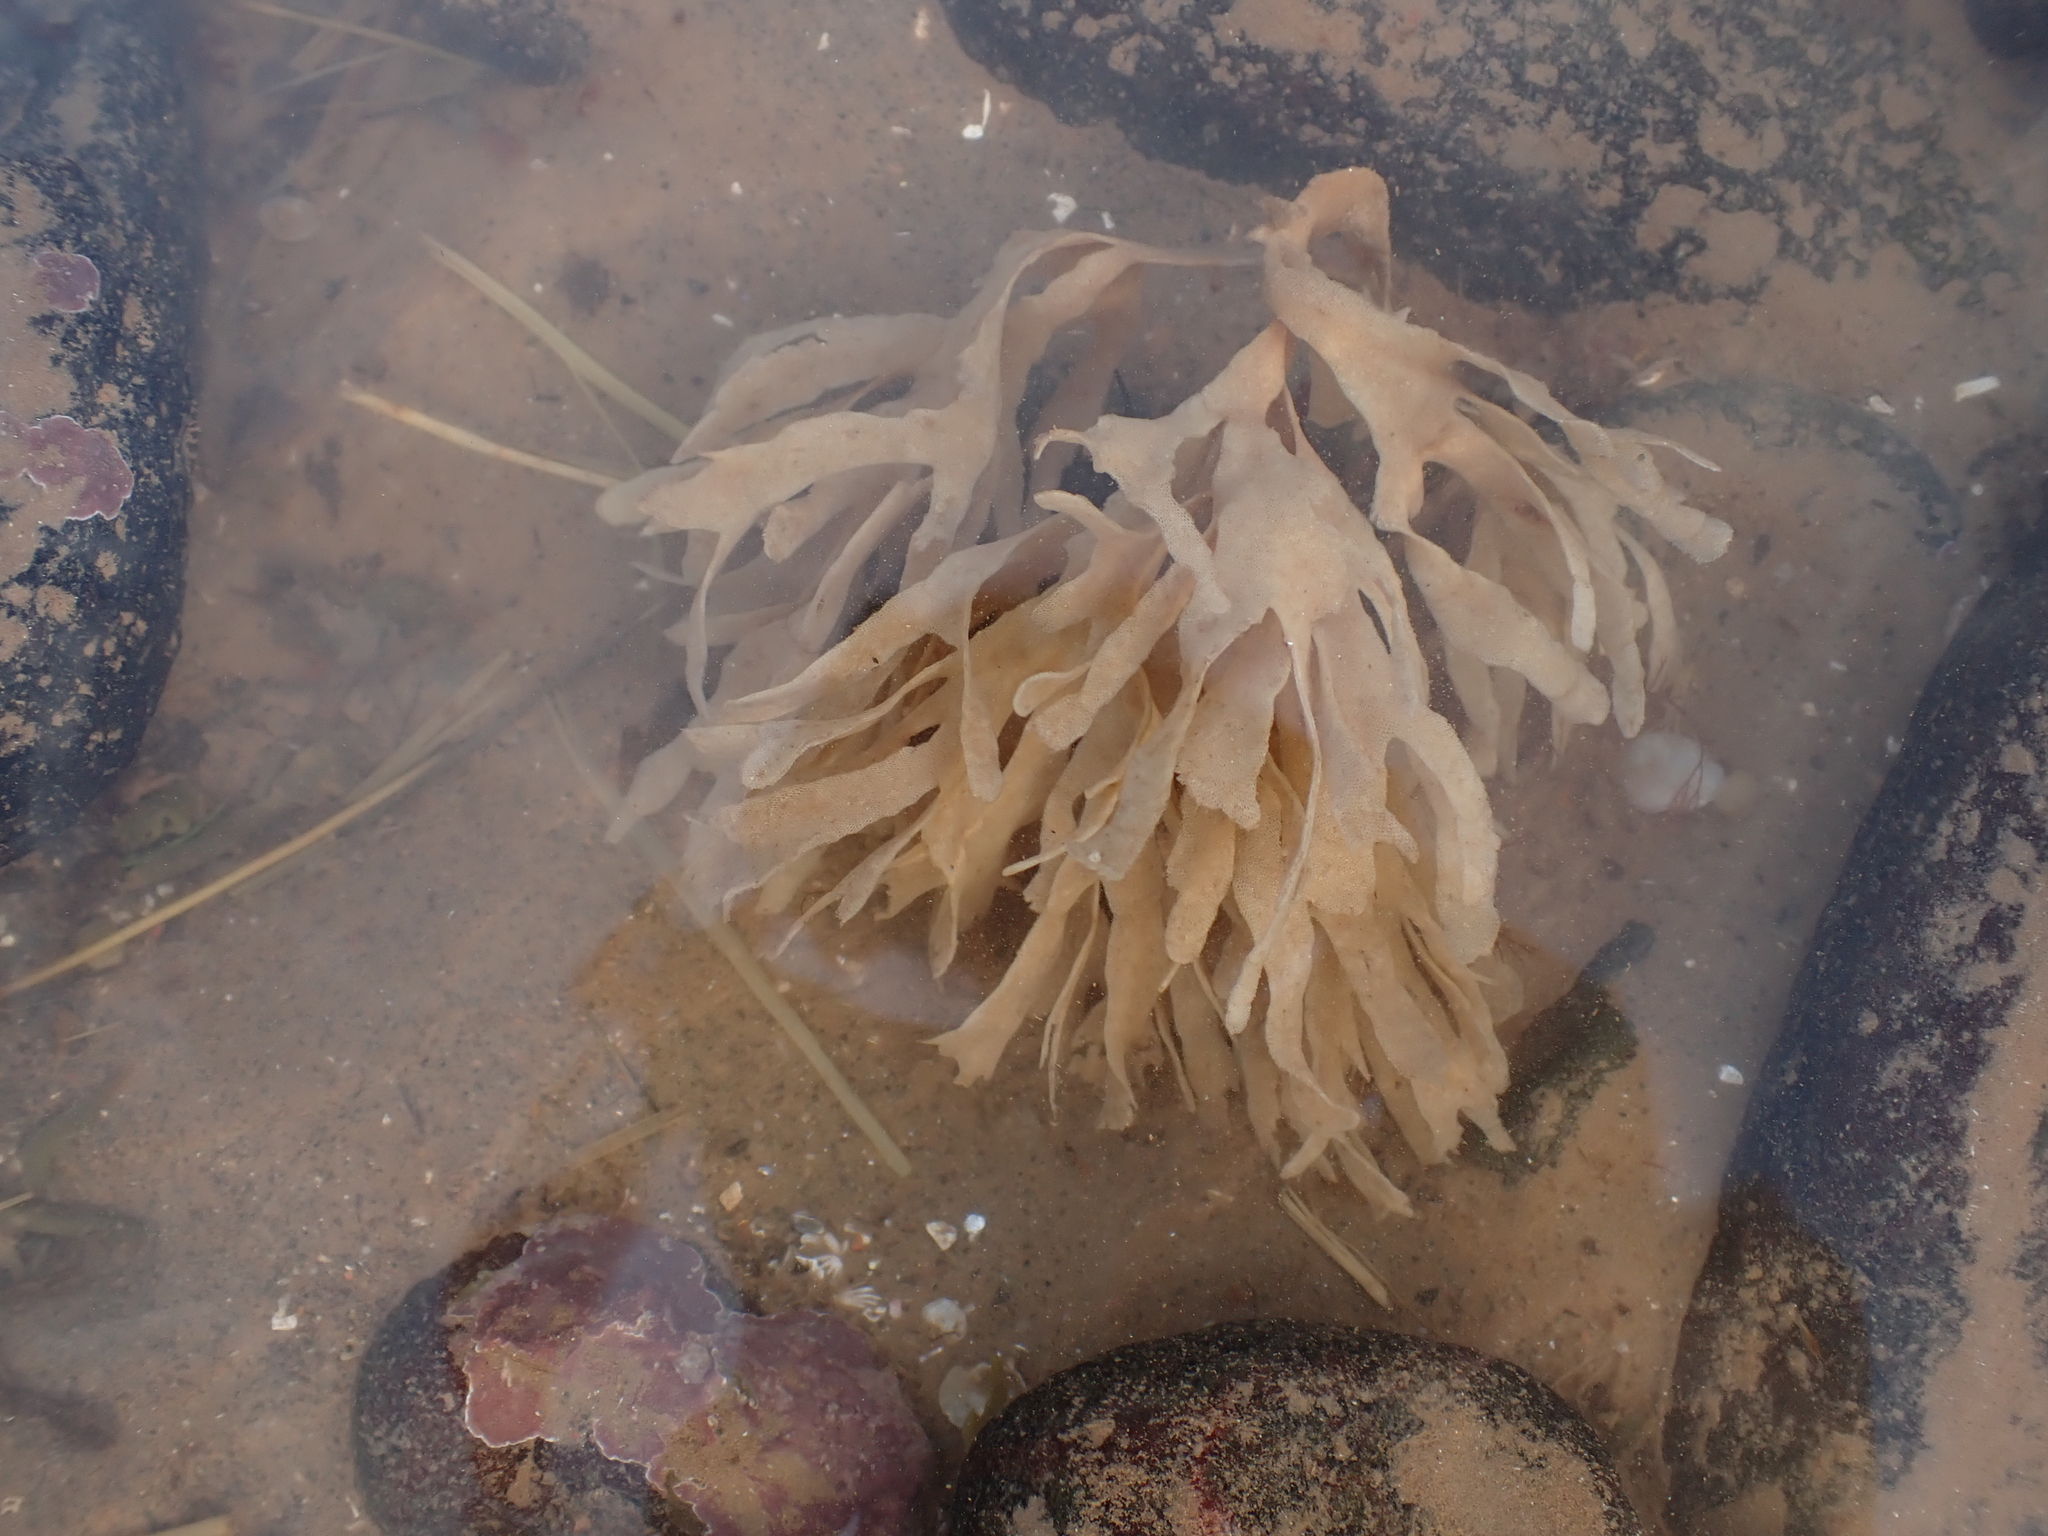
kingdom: Animalia
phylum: Bryozoa
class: Gymnolaemata
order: Cheilostomatida
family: Flustridae
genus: Flustra
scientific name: Flustra foliacea
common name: Hornwrack
